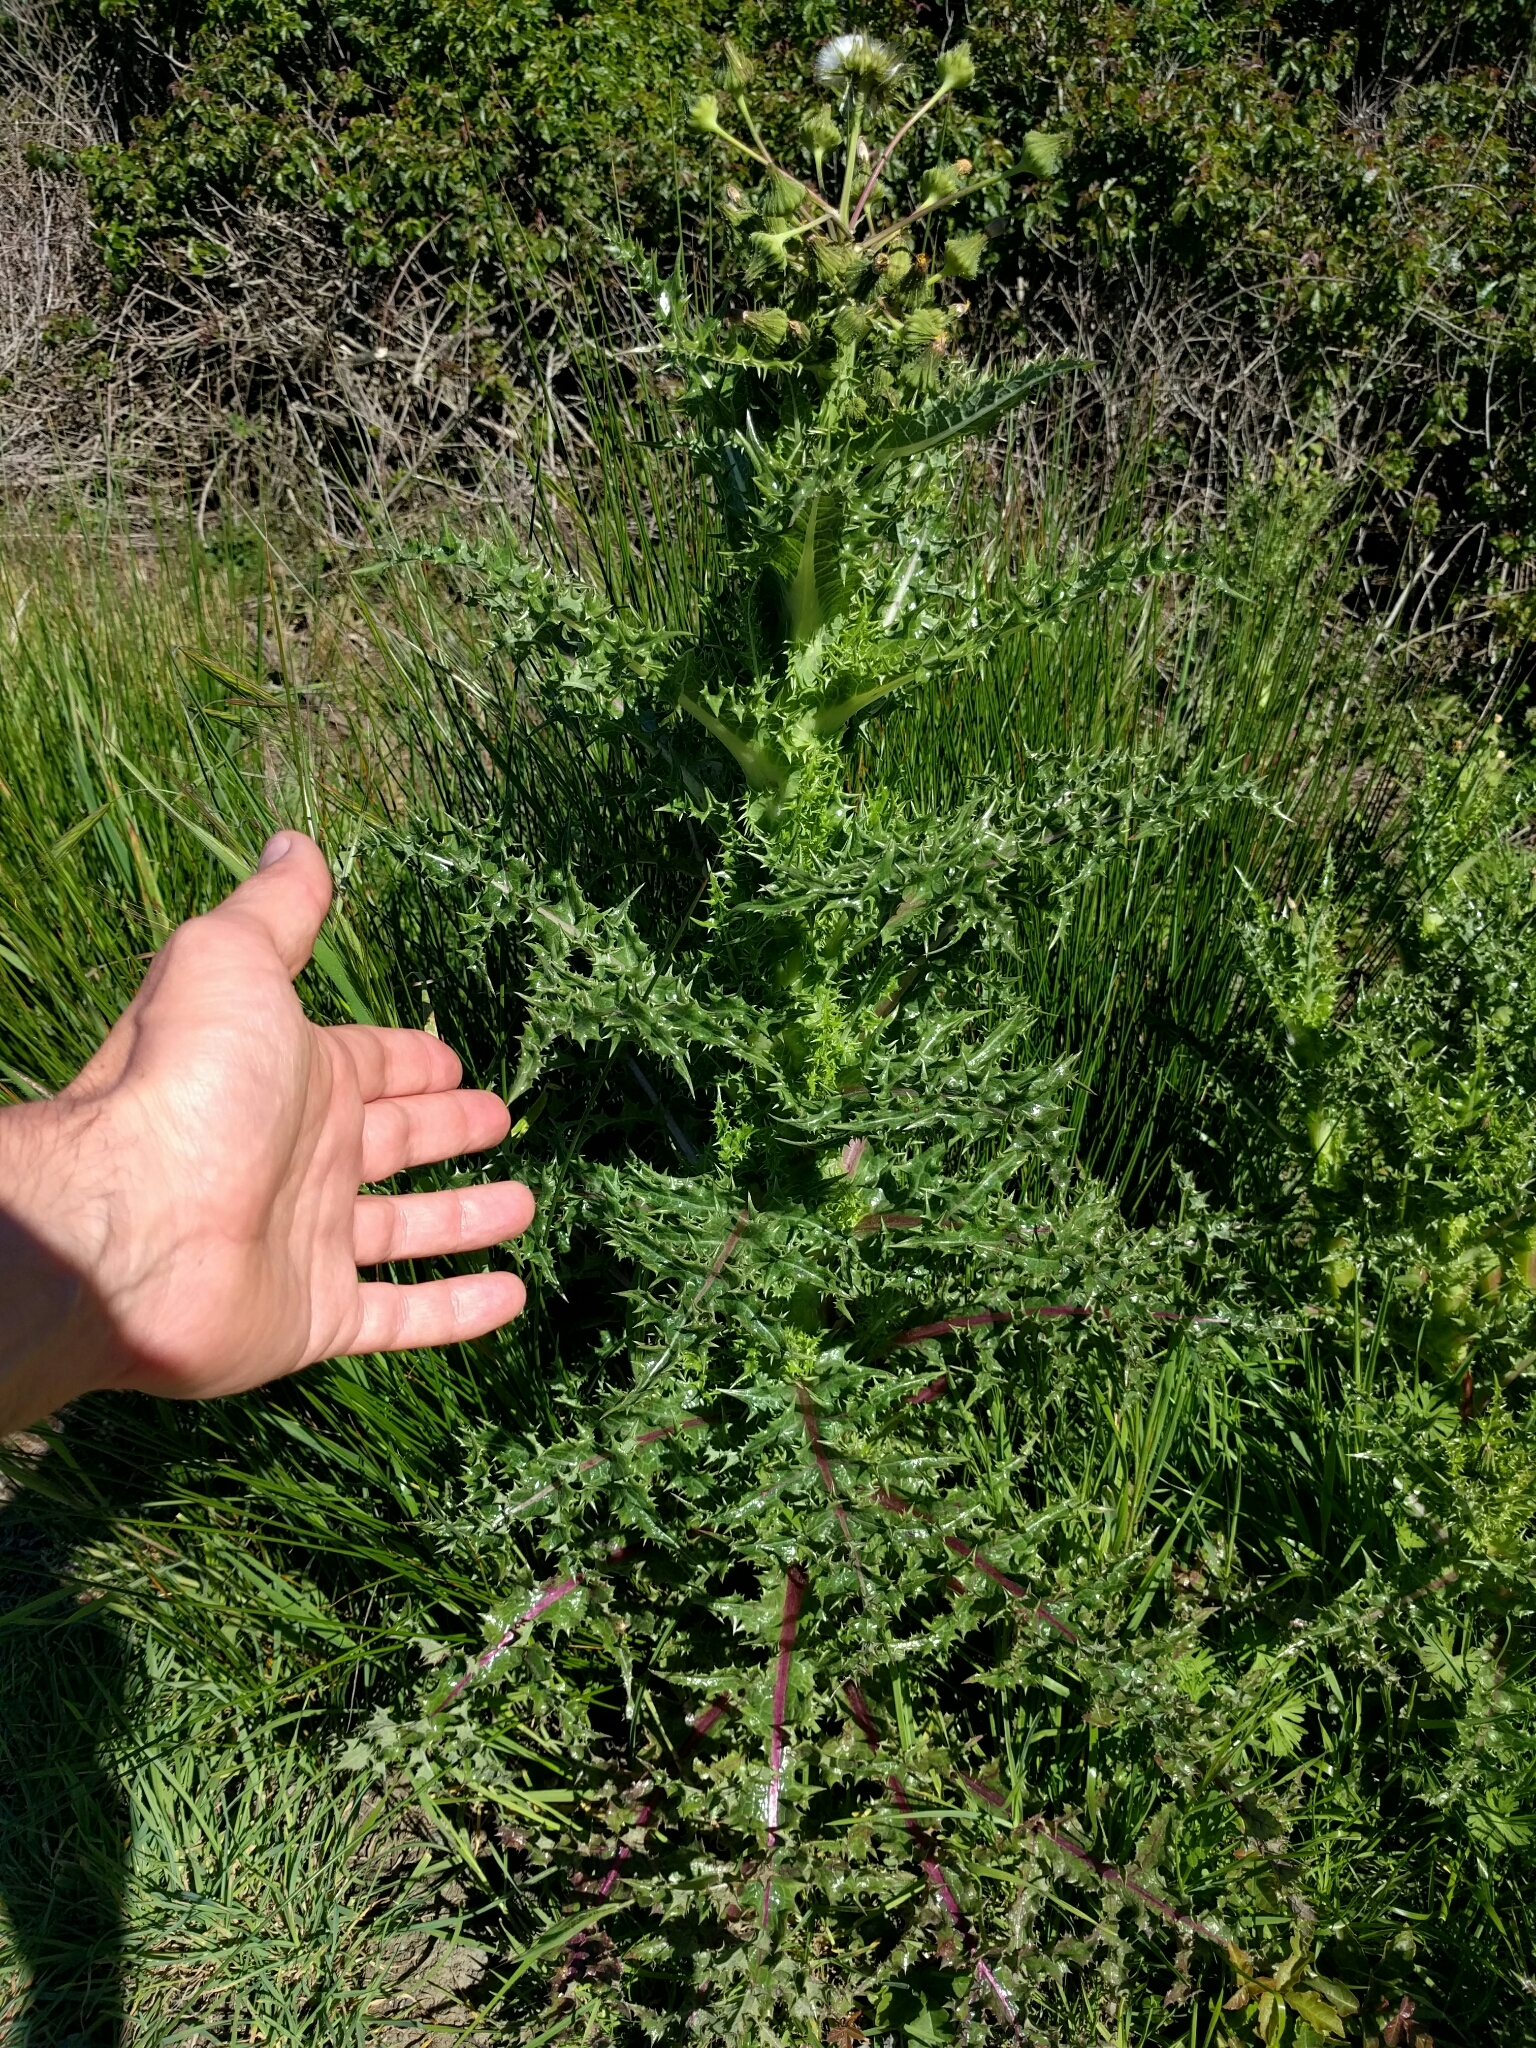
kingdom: Plantae
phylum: Tracheophyta
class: Magnoliopsida
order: Asterales
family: Asteraceae
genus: Sonchus
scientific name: Sonchus asper
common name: Prickly sow-thistle
